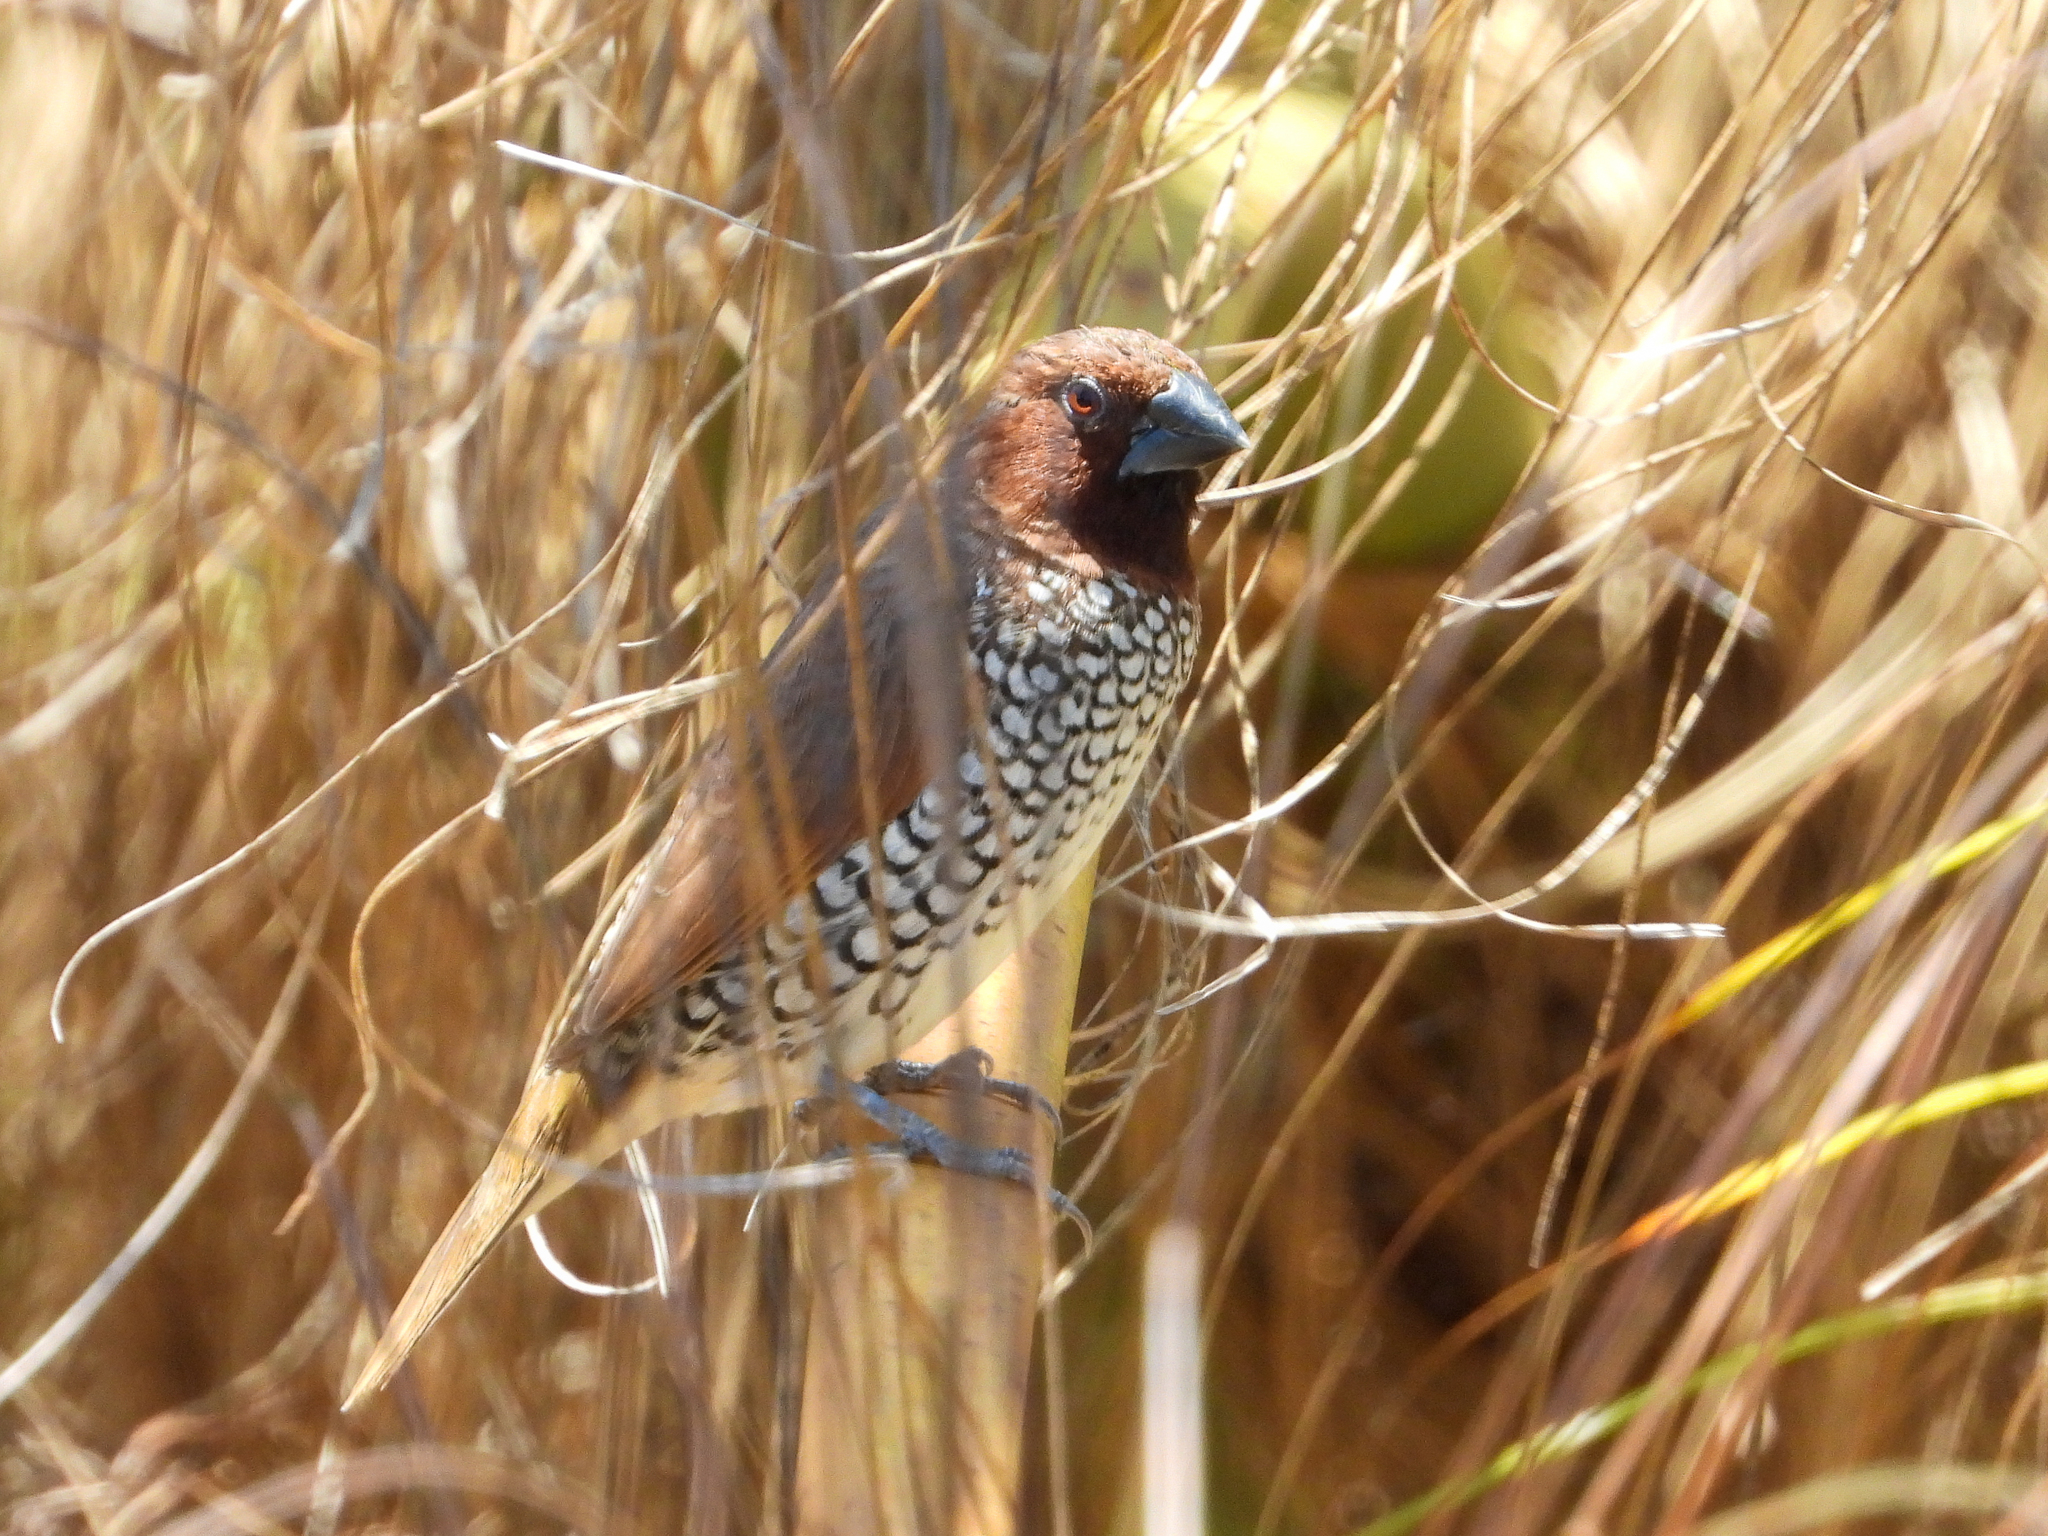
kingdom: Animalia
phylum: Chordata
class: Aves
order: Passeriformes
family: Estrildidae
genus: Lonchura
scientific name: Lonchura punctulata
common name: Scaly-breasted munia
